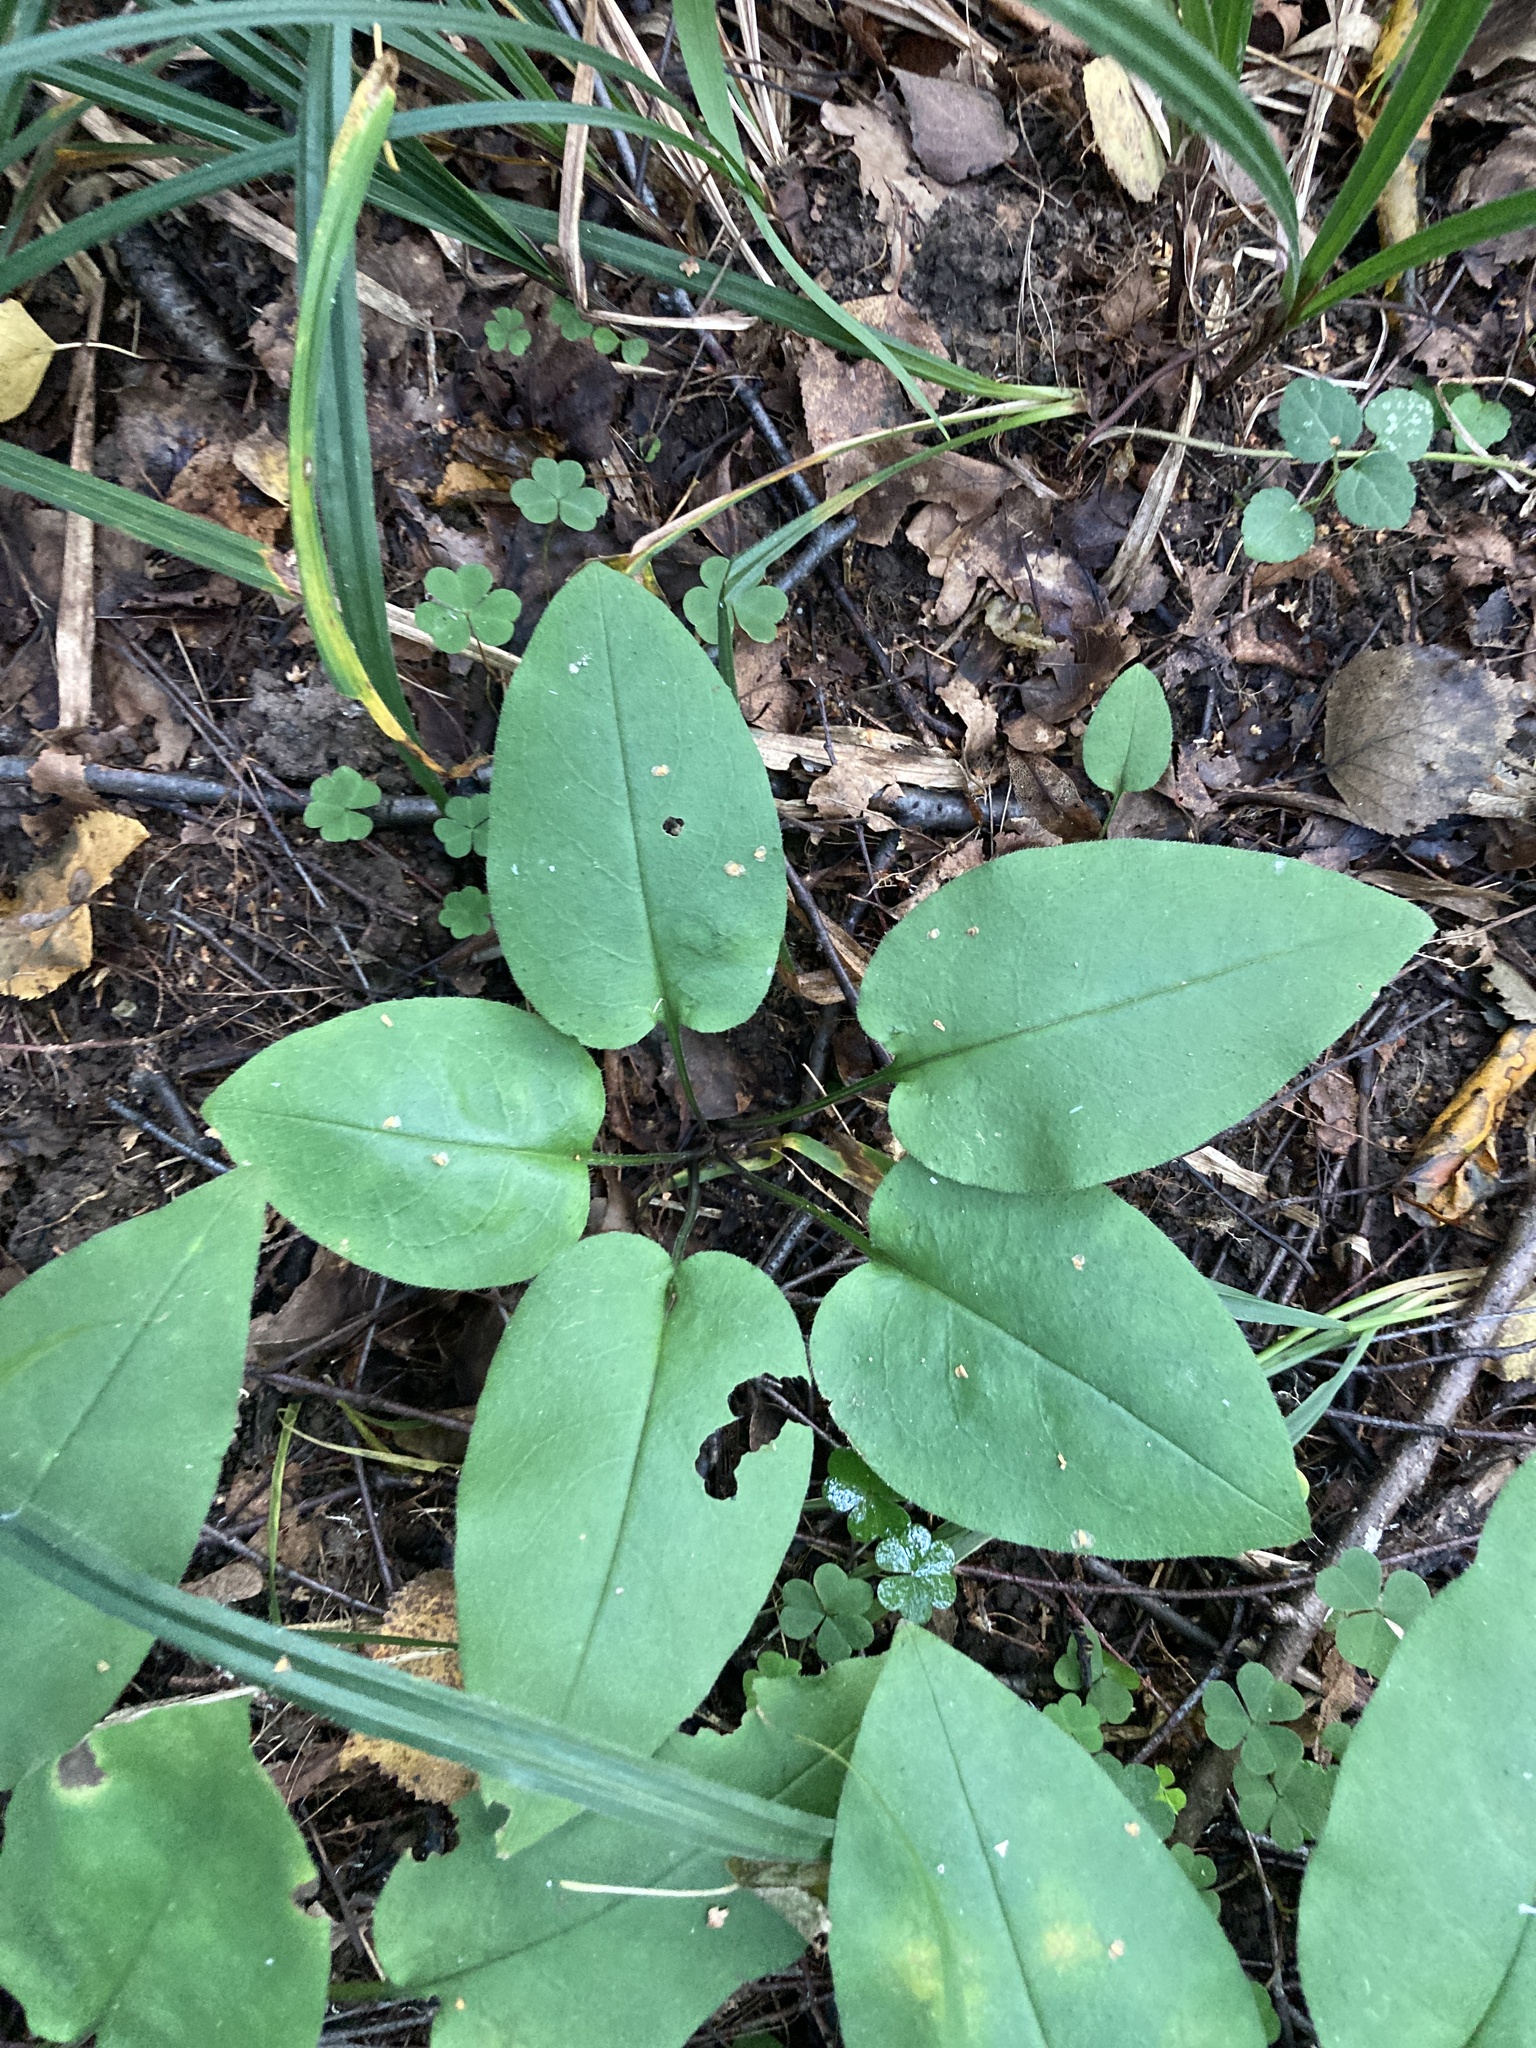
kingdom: Plantae
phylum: Tracheophyta
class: Magnoliopsida
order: Boraginales
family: Boraginaceae
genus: Pulmonaria
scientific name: Pulmonaria obscura
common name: Suffolk lungwort
